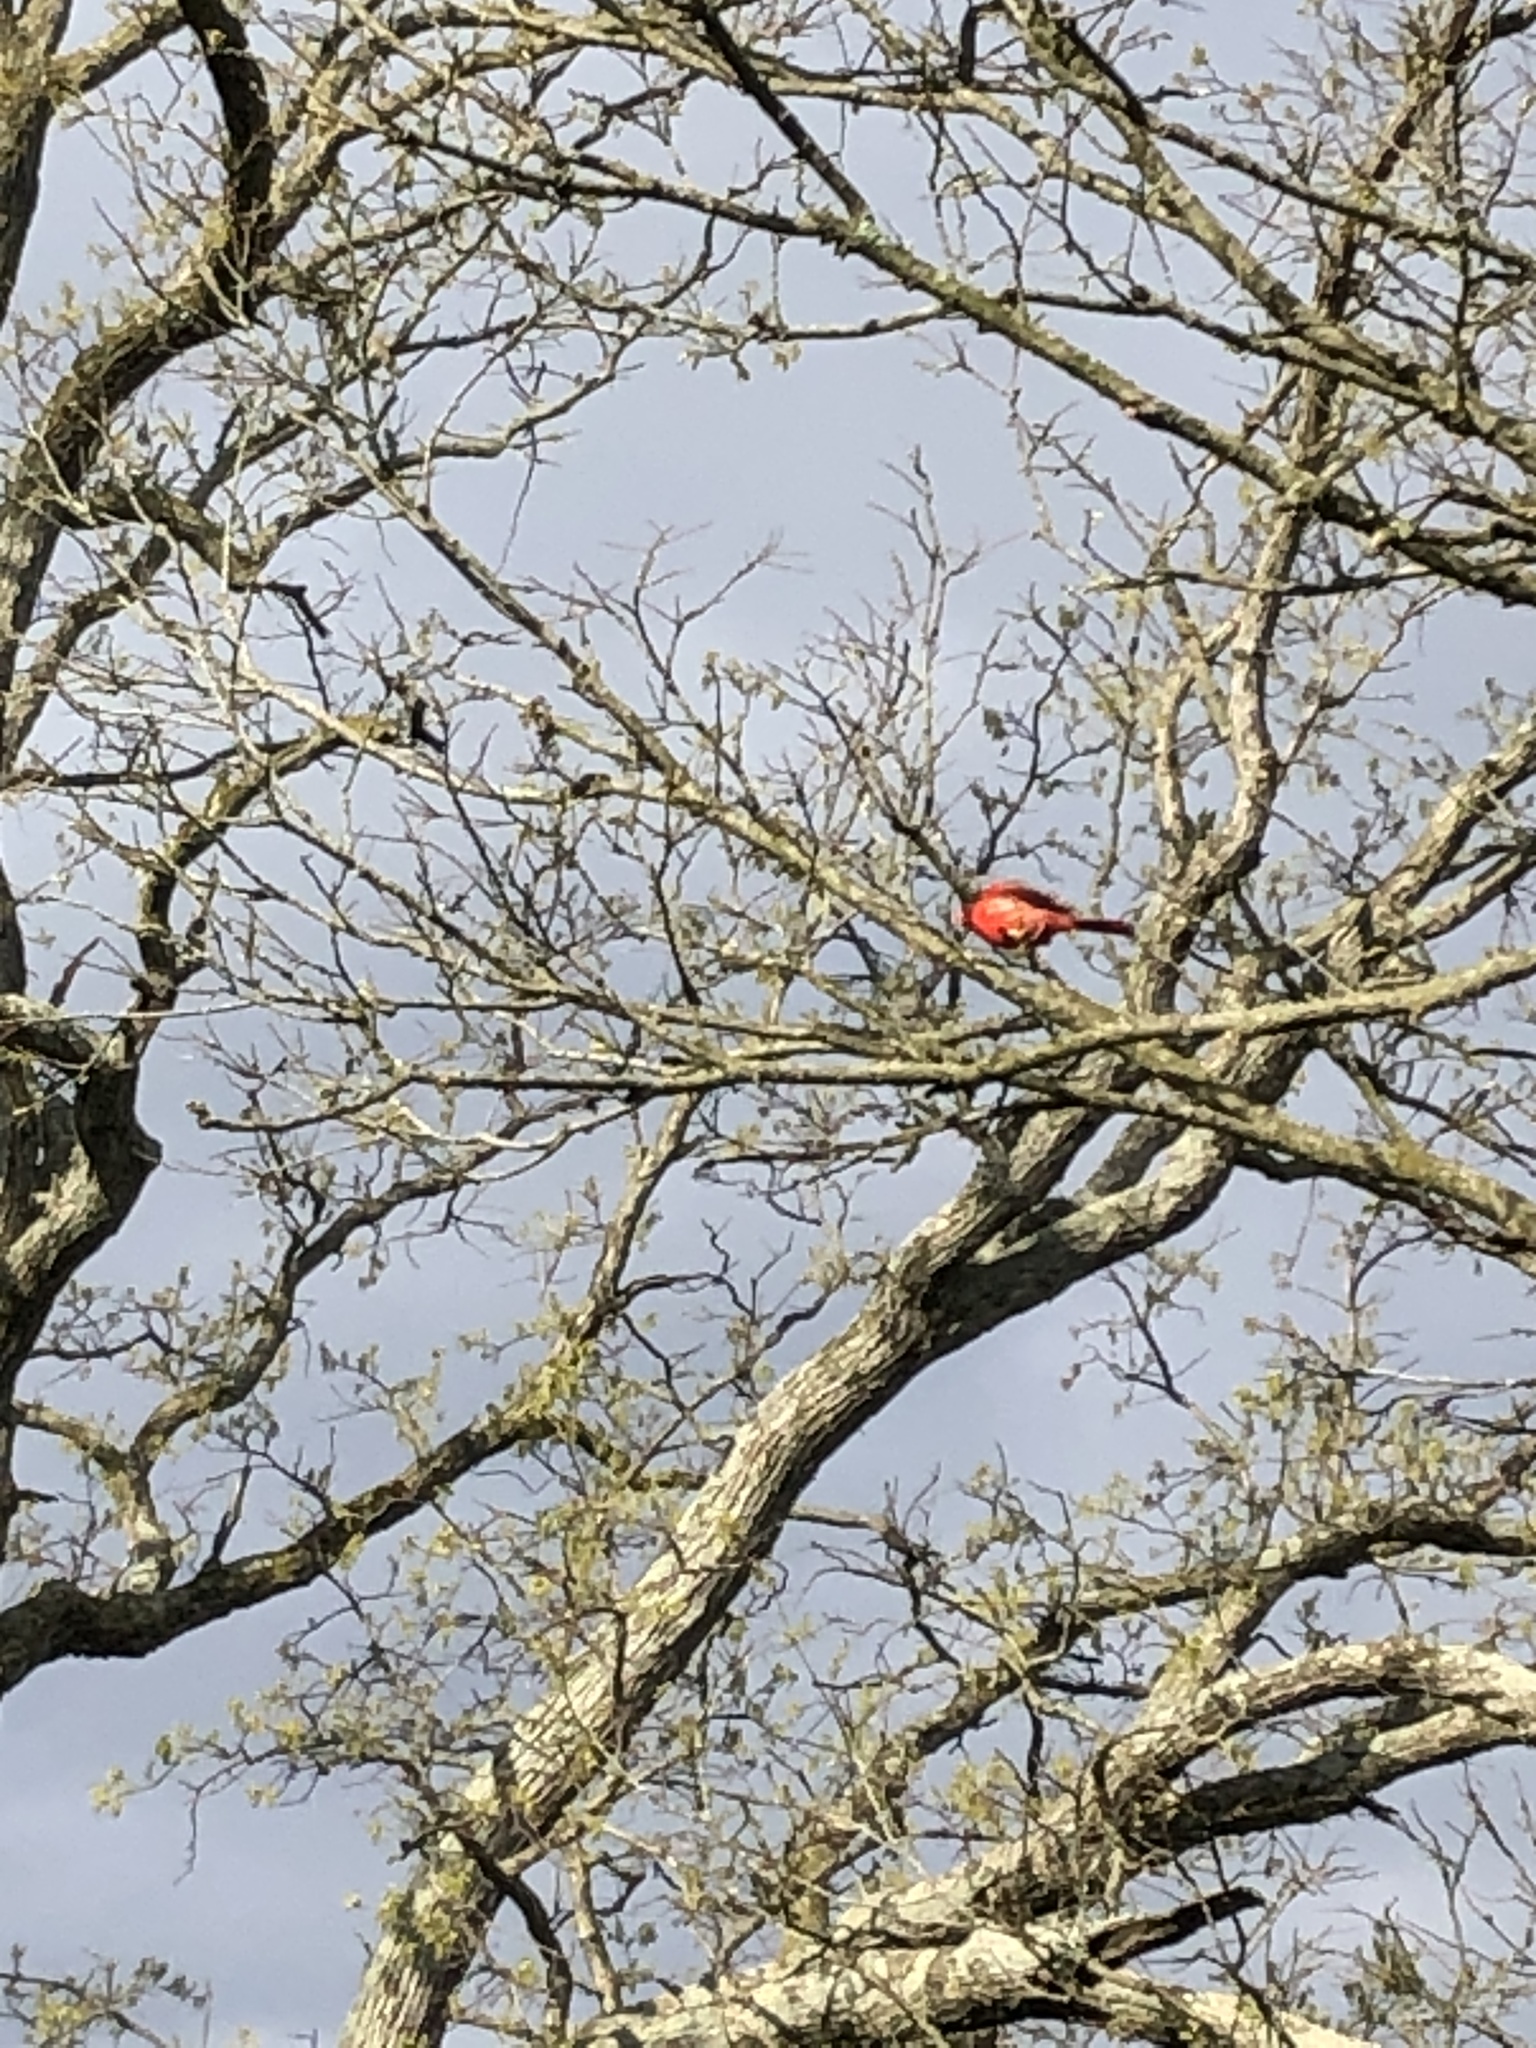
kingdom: Animalia
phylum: Chordata
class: Aves
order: Passeriformes
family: Cardinalidae
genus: Cardinalis
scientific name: Cardinalis cardinalis
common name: Northern cardinal
